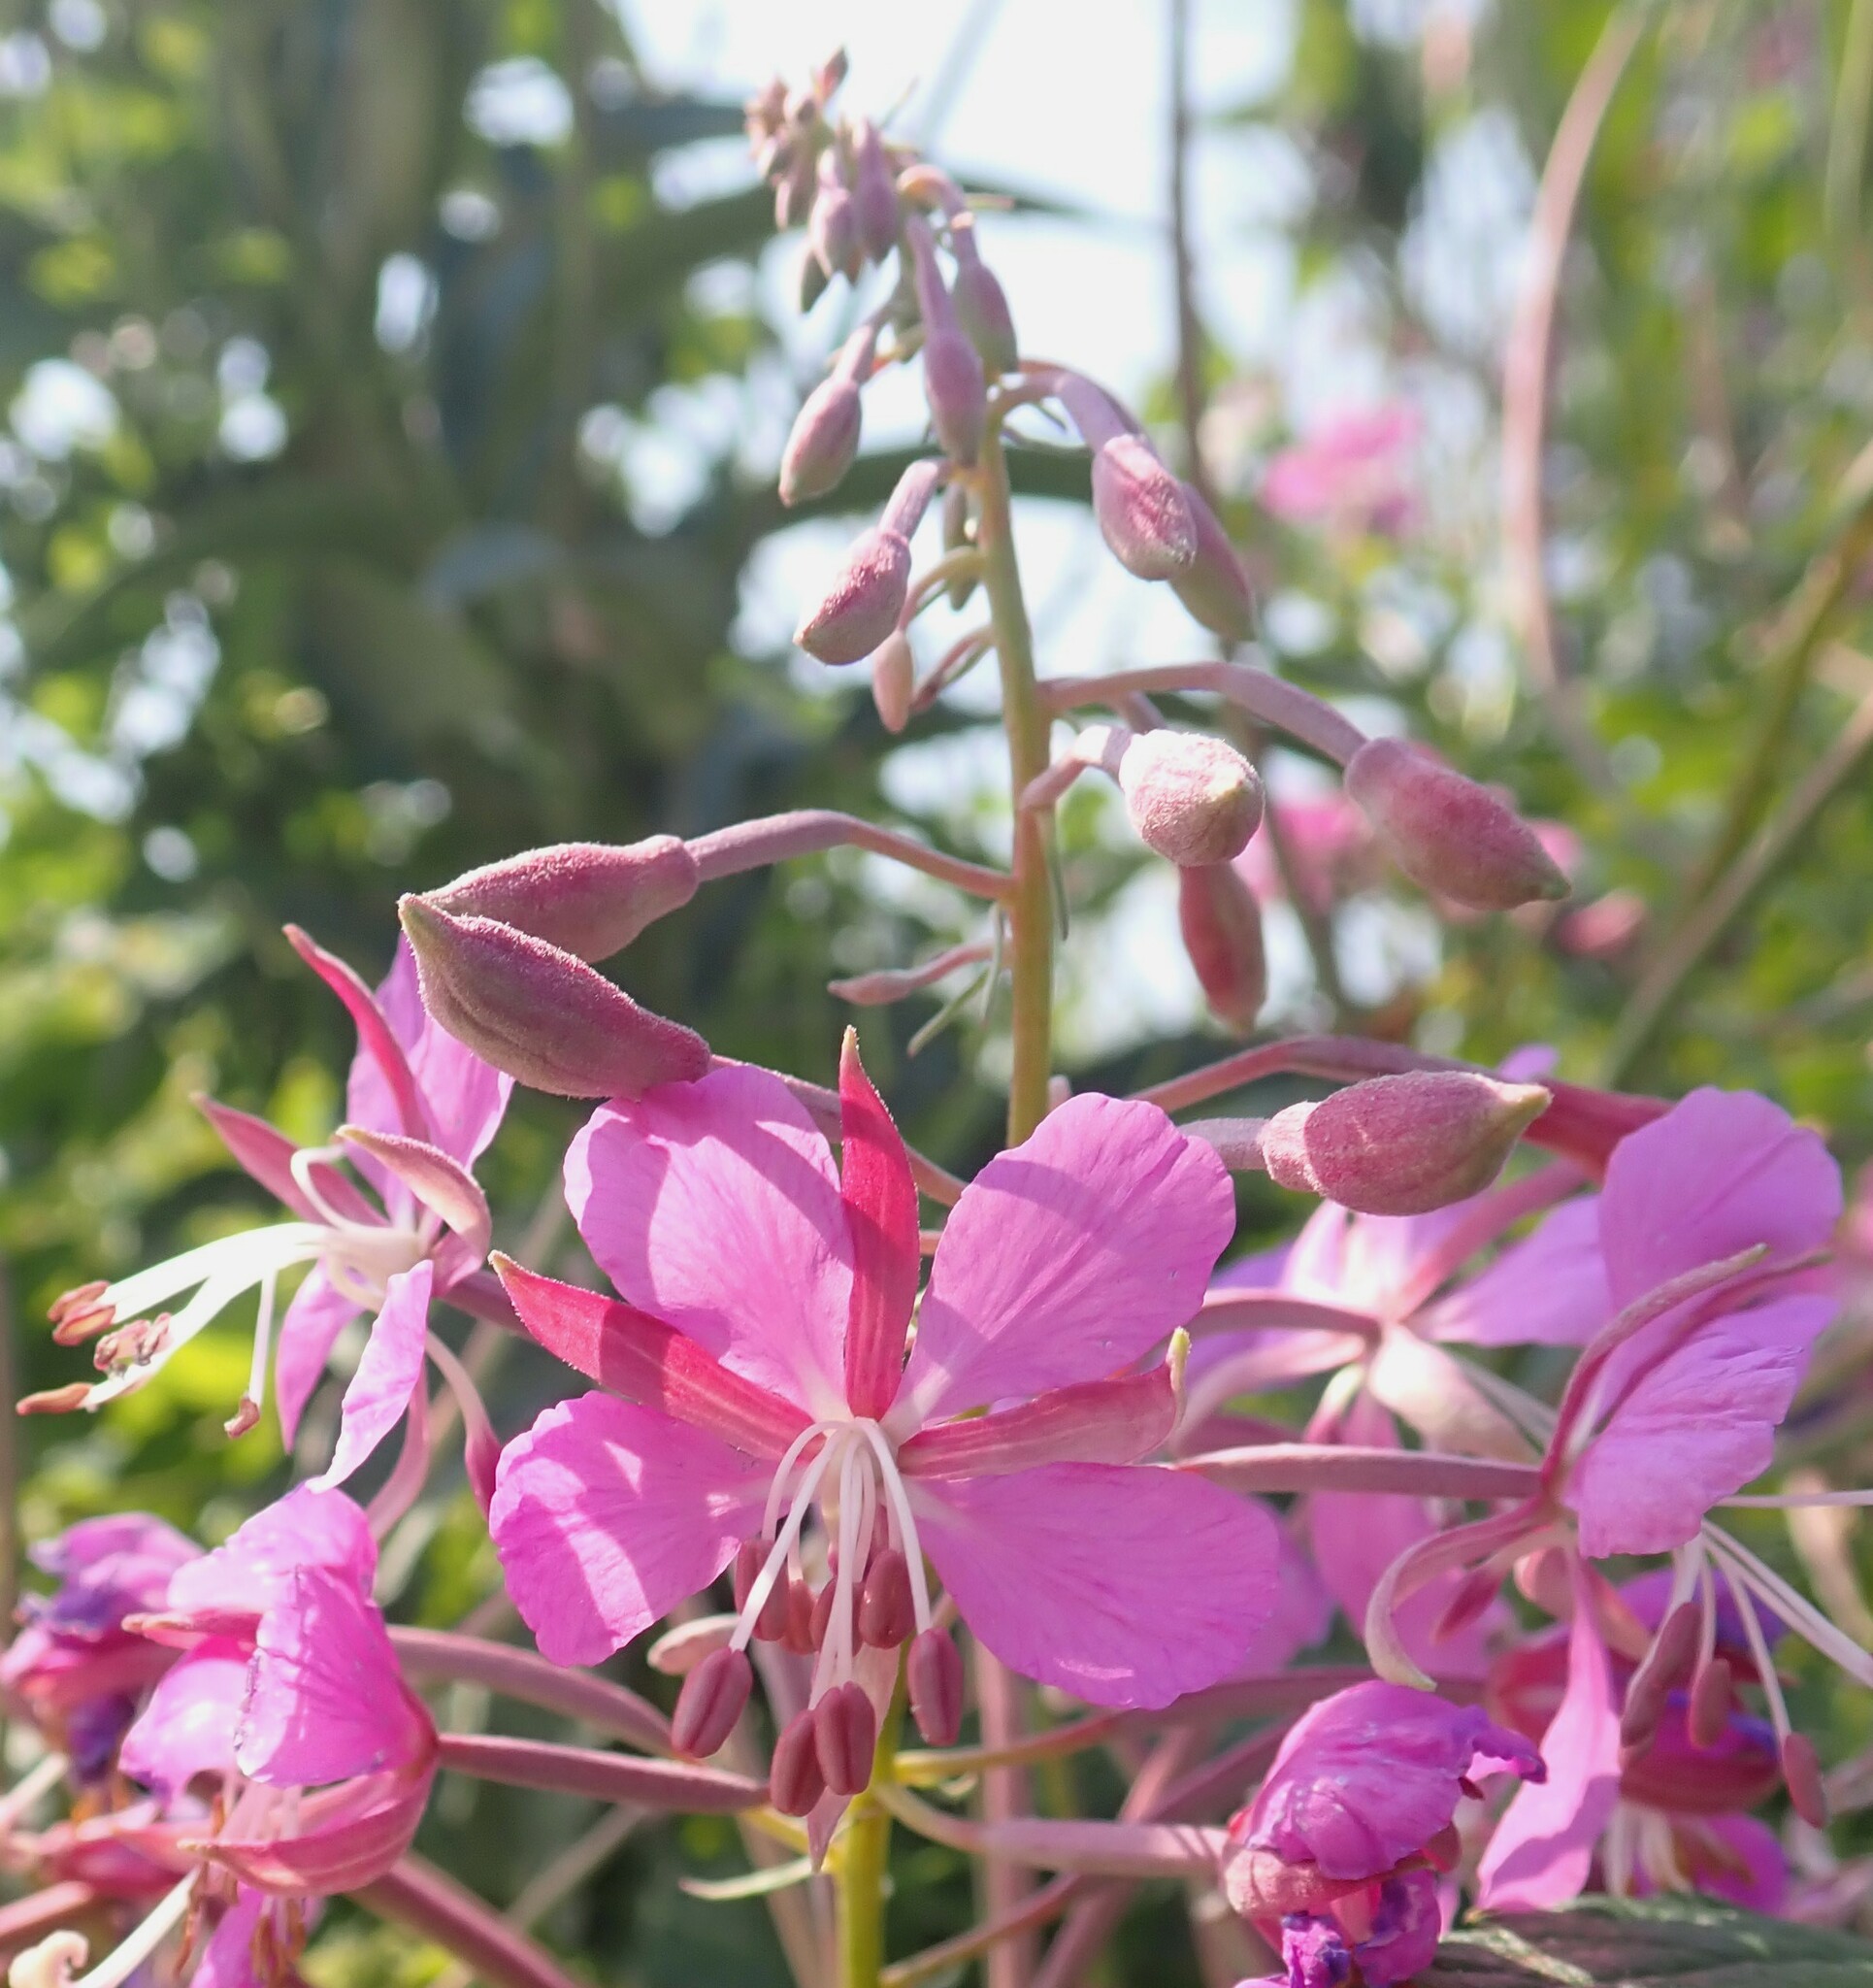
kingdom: Plantae
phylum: Tracheophyta
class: Magnoliopsida
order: Myrtales
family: Onagraceae
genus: Chamaenerion
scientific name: Chamaenerion angustifolium
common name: Fireweed
